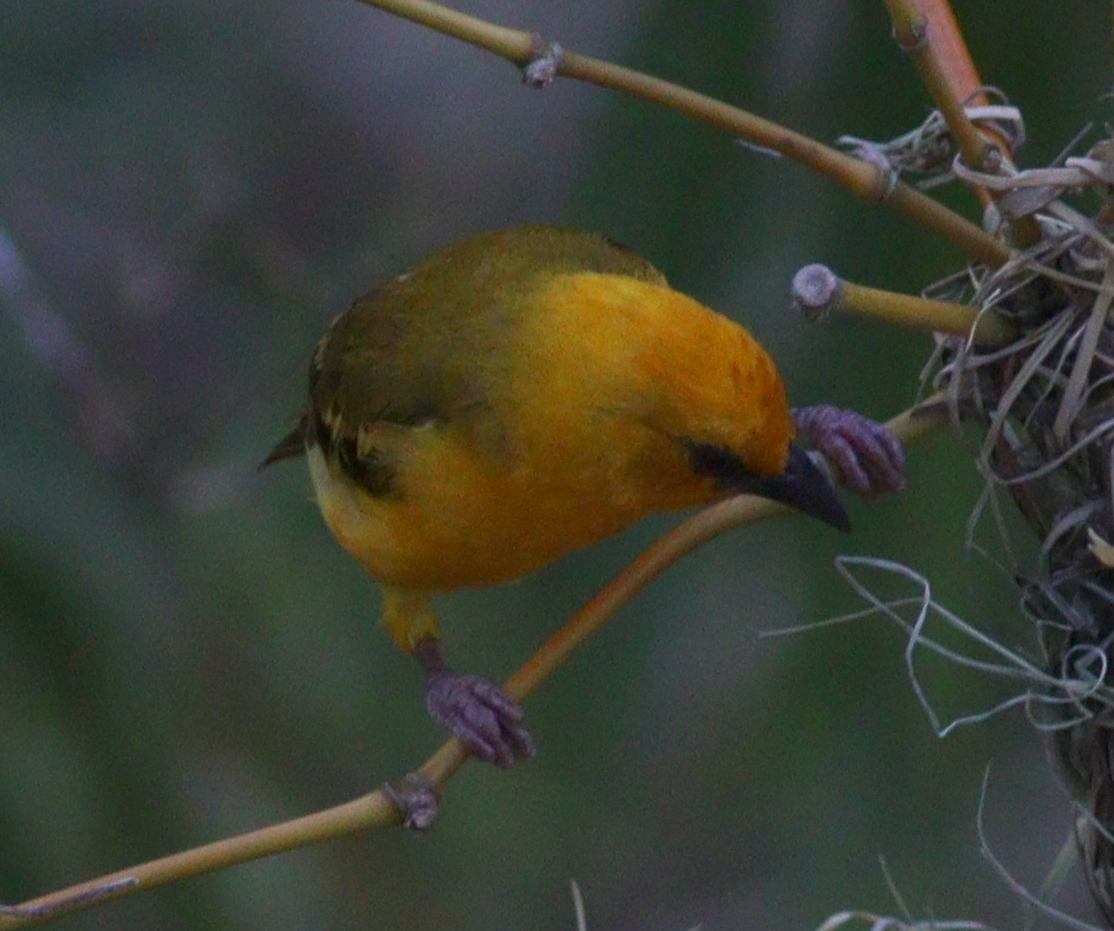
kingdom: Animalia
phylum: Chordata
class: Aves
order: Passeriformes
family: Ploceidae
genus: Ploceus
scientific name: Ploceus aurantius
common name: Orange weaver
